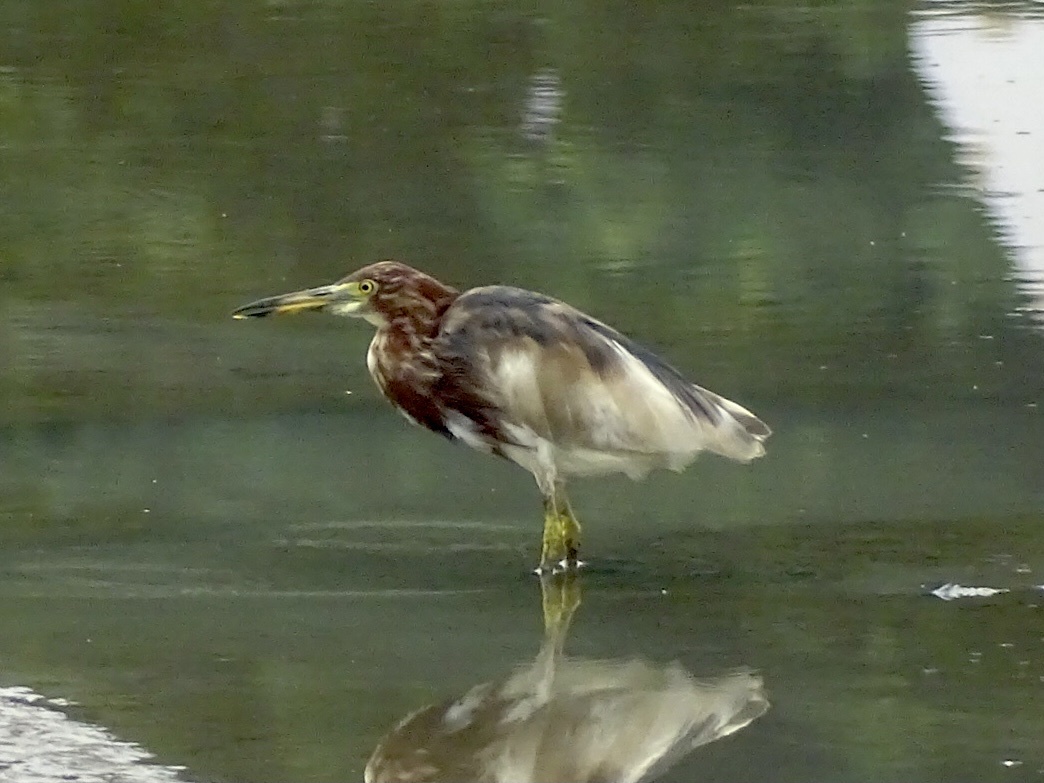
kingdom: Animalia
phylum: Chordata
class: Aves
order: Pelecaniformes
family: Ardeidae
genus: Ardeola
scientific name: Ardeola bacchus
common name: Chinese pond heron
